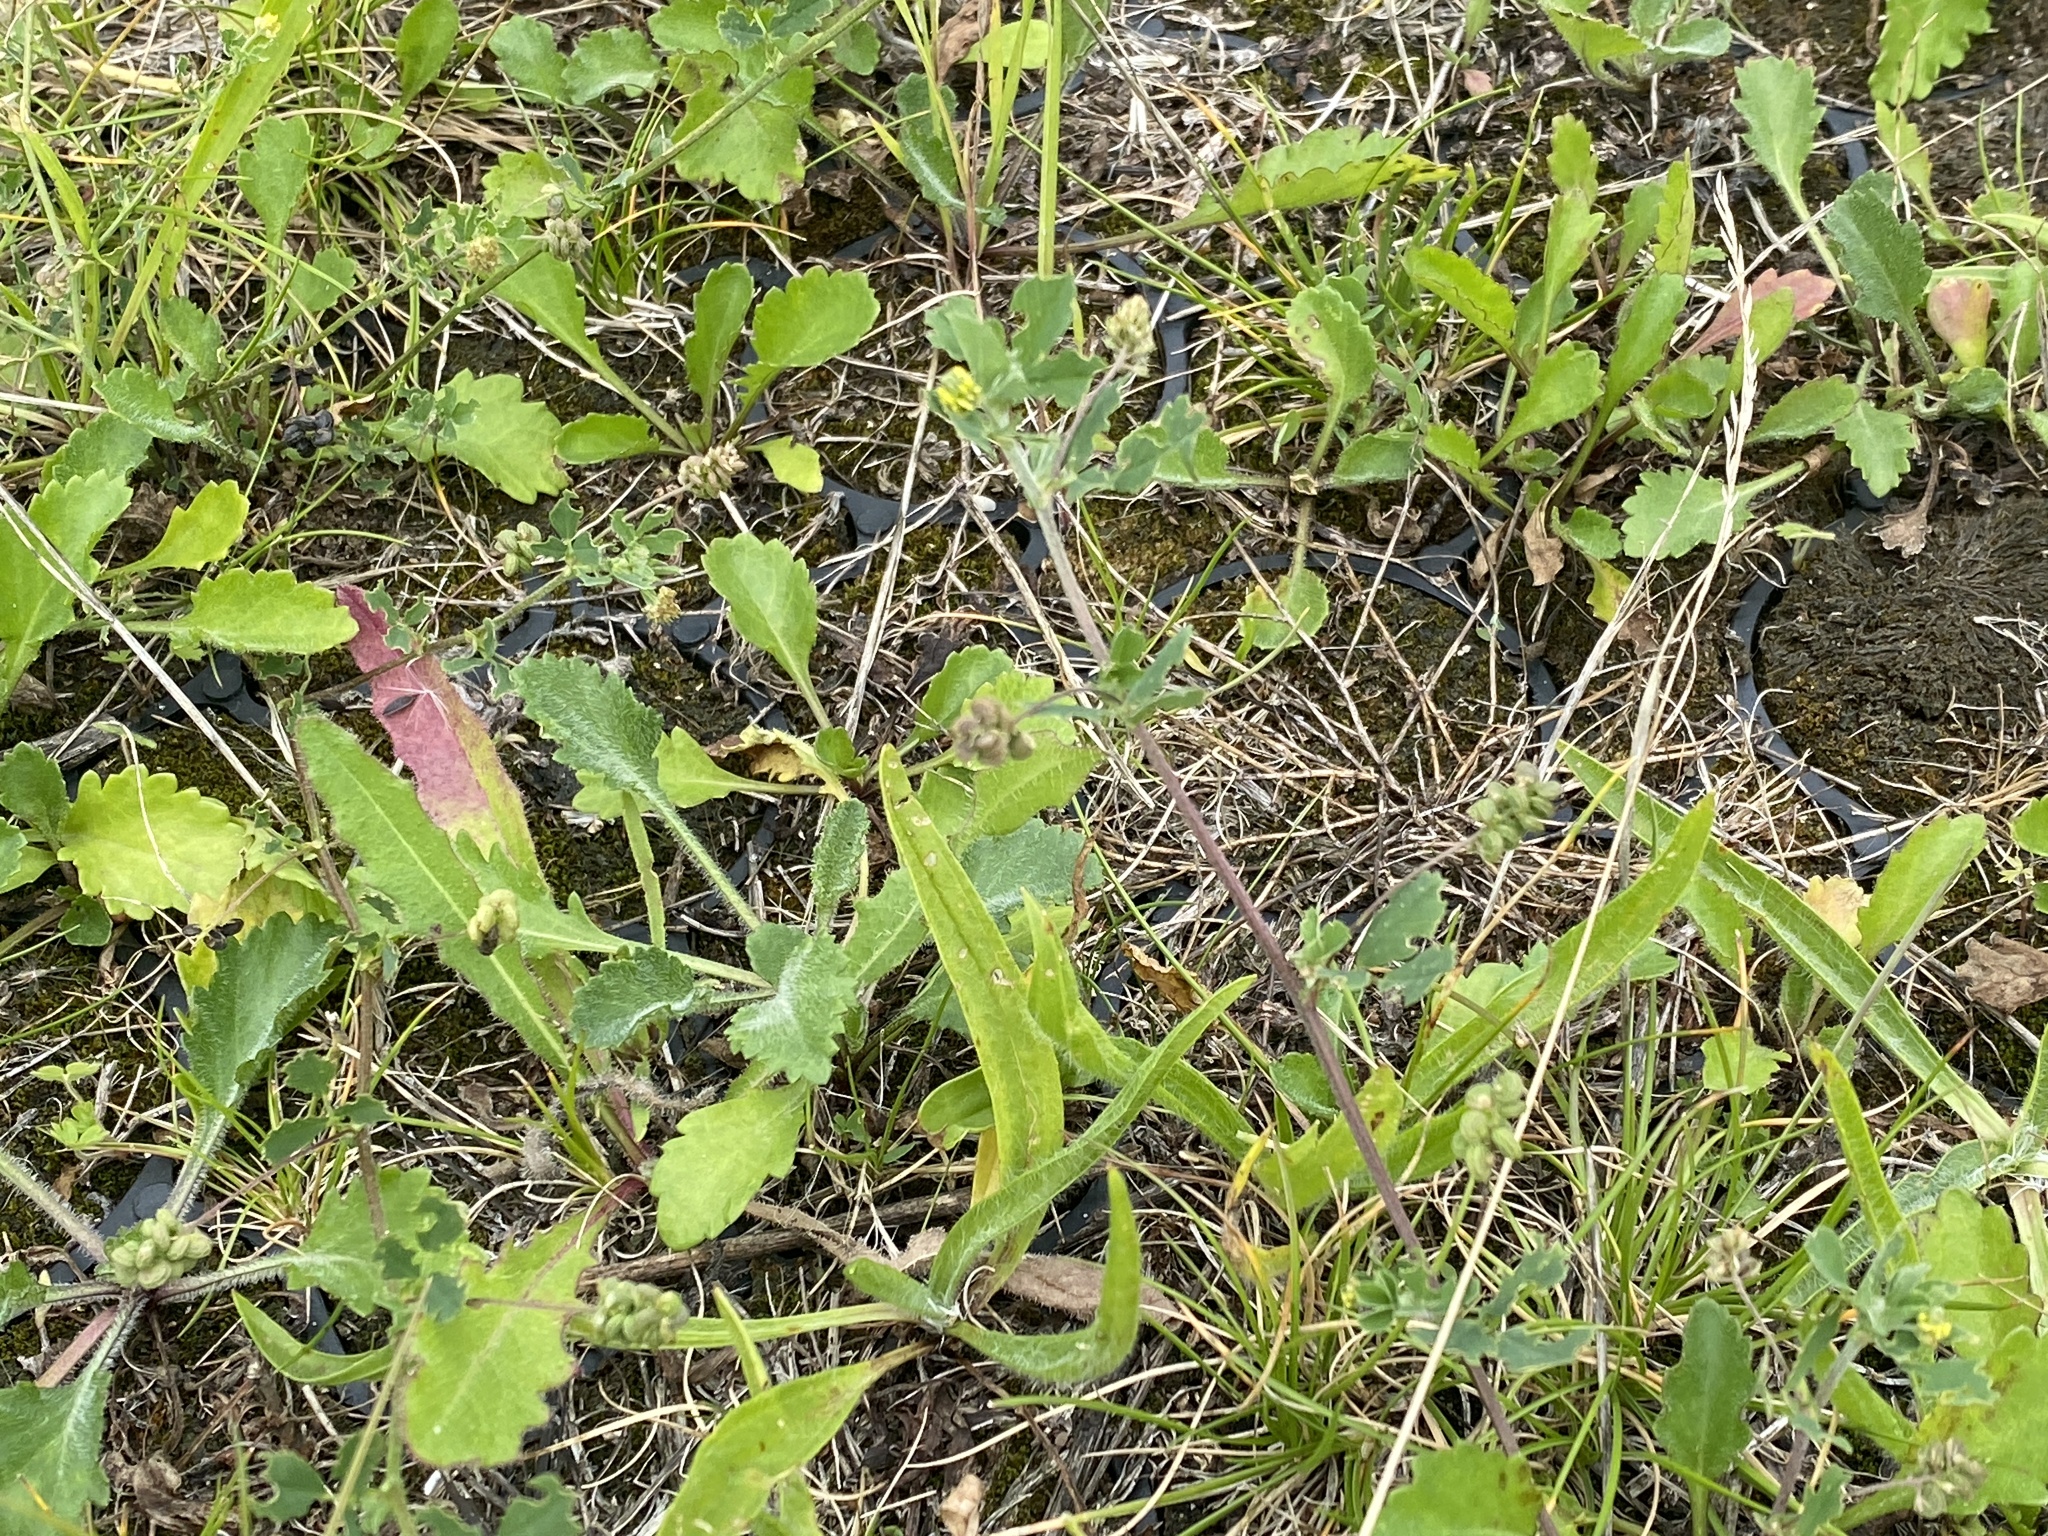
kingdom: Plantae
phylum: Tracheophyta
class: Magnoliopsida
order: Fabales
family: Fabaceae
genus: Medicago
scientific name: Medicago lupulina
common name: Black medick
